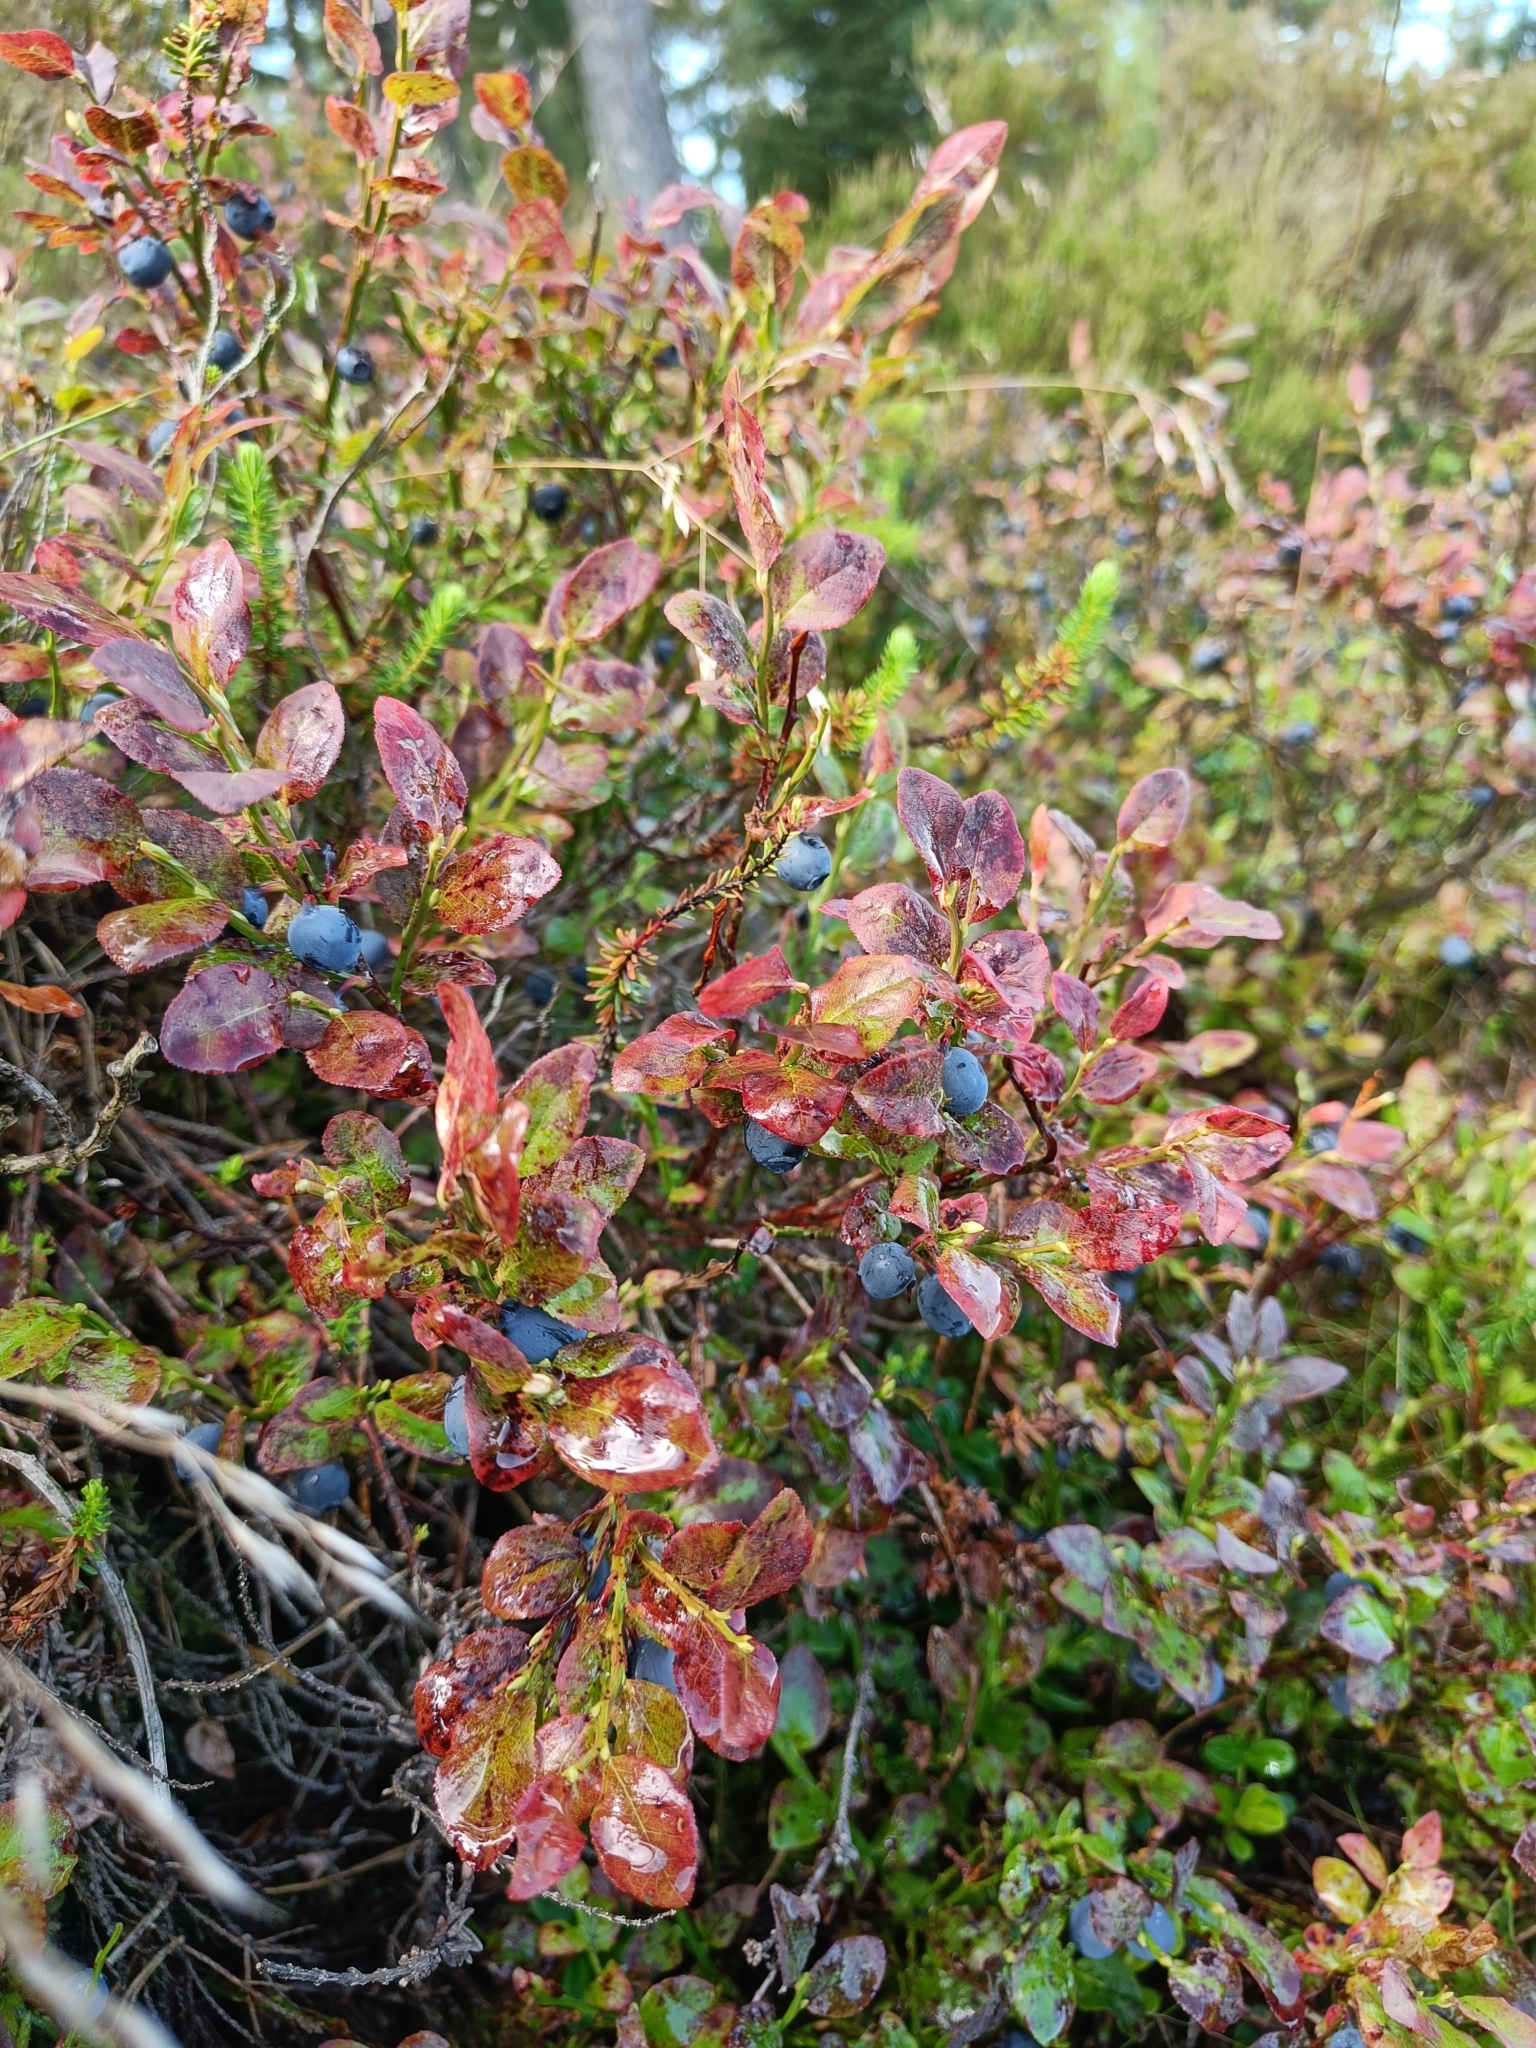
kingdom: Plantae
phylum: Tracheophyta
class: Magnoliopsida
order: Ericales
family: Ericaceae
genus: Vaccinium
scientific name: Vaccinium myrtillus
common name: Bilberry
